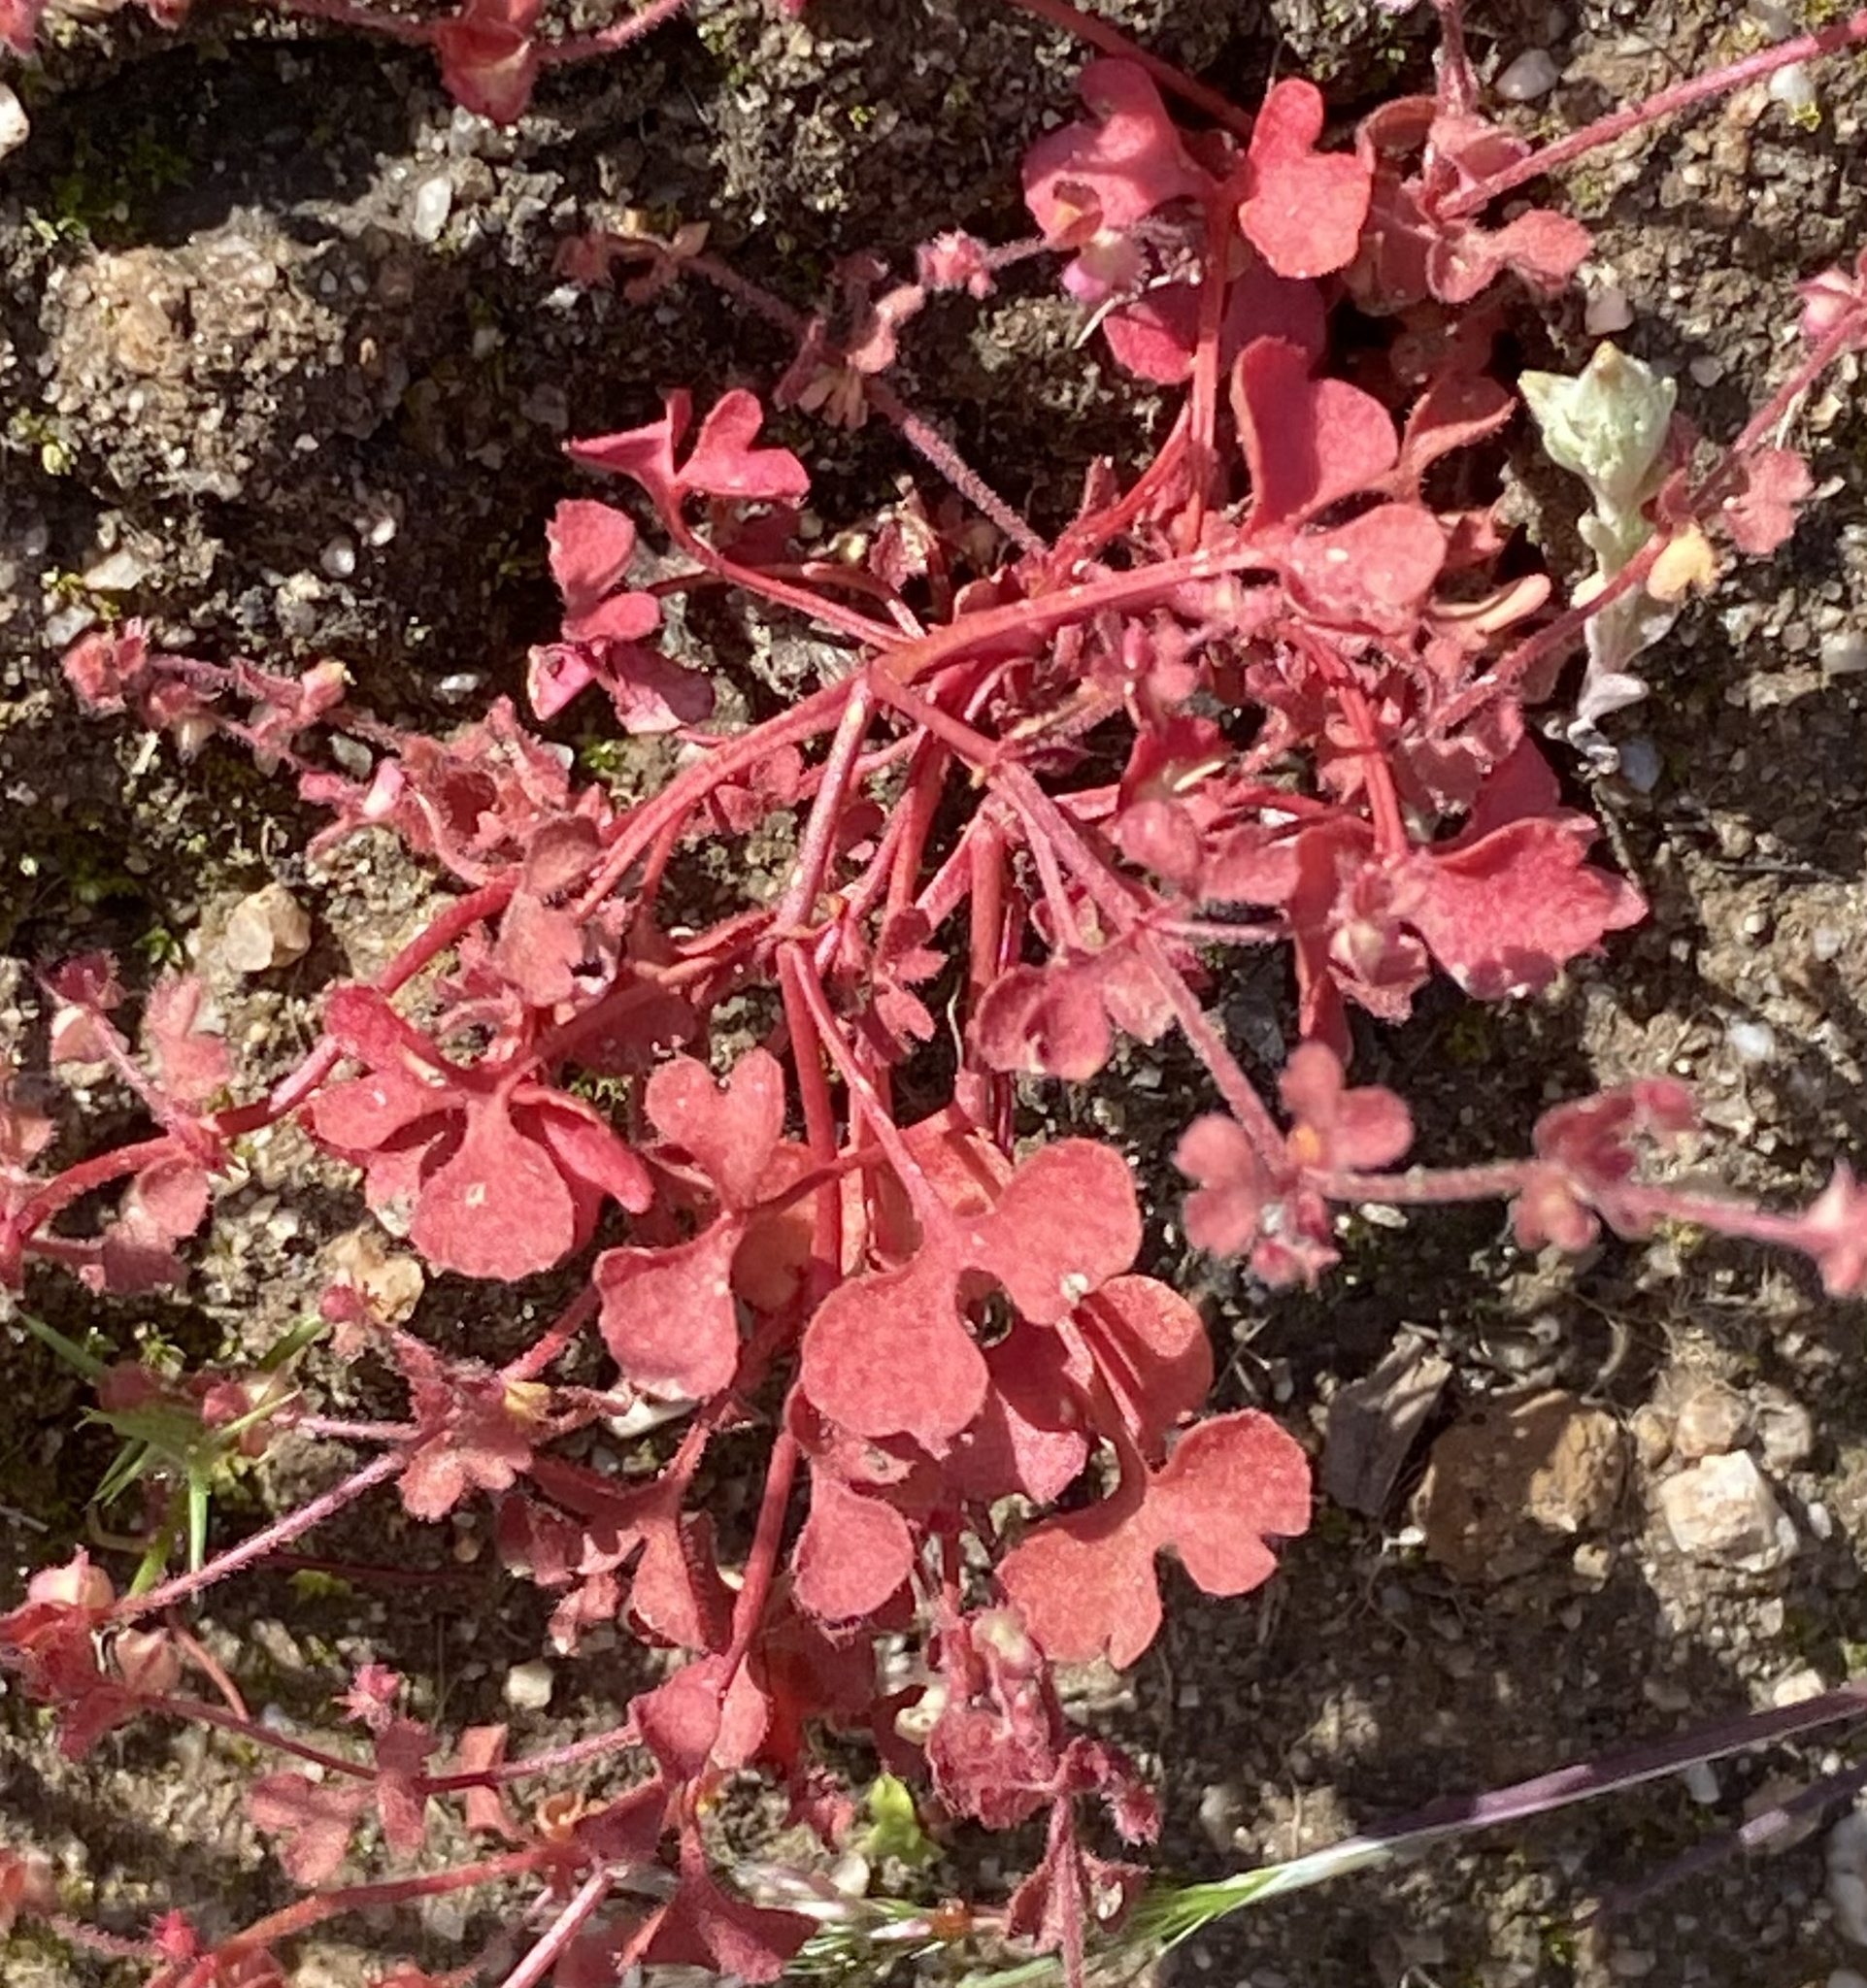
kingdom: Plantae
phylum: Tracheophyta
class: Magnoliopsida
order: Caryophyllales
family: Polygonaceae
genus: Pterostegia
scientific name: Pterostegia drymarioides
